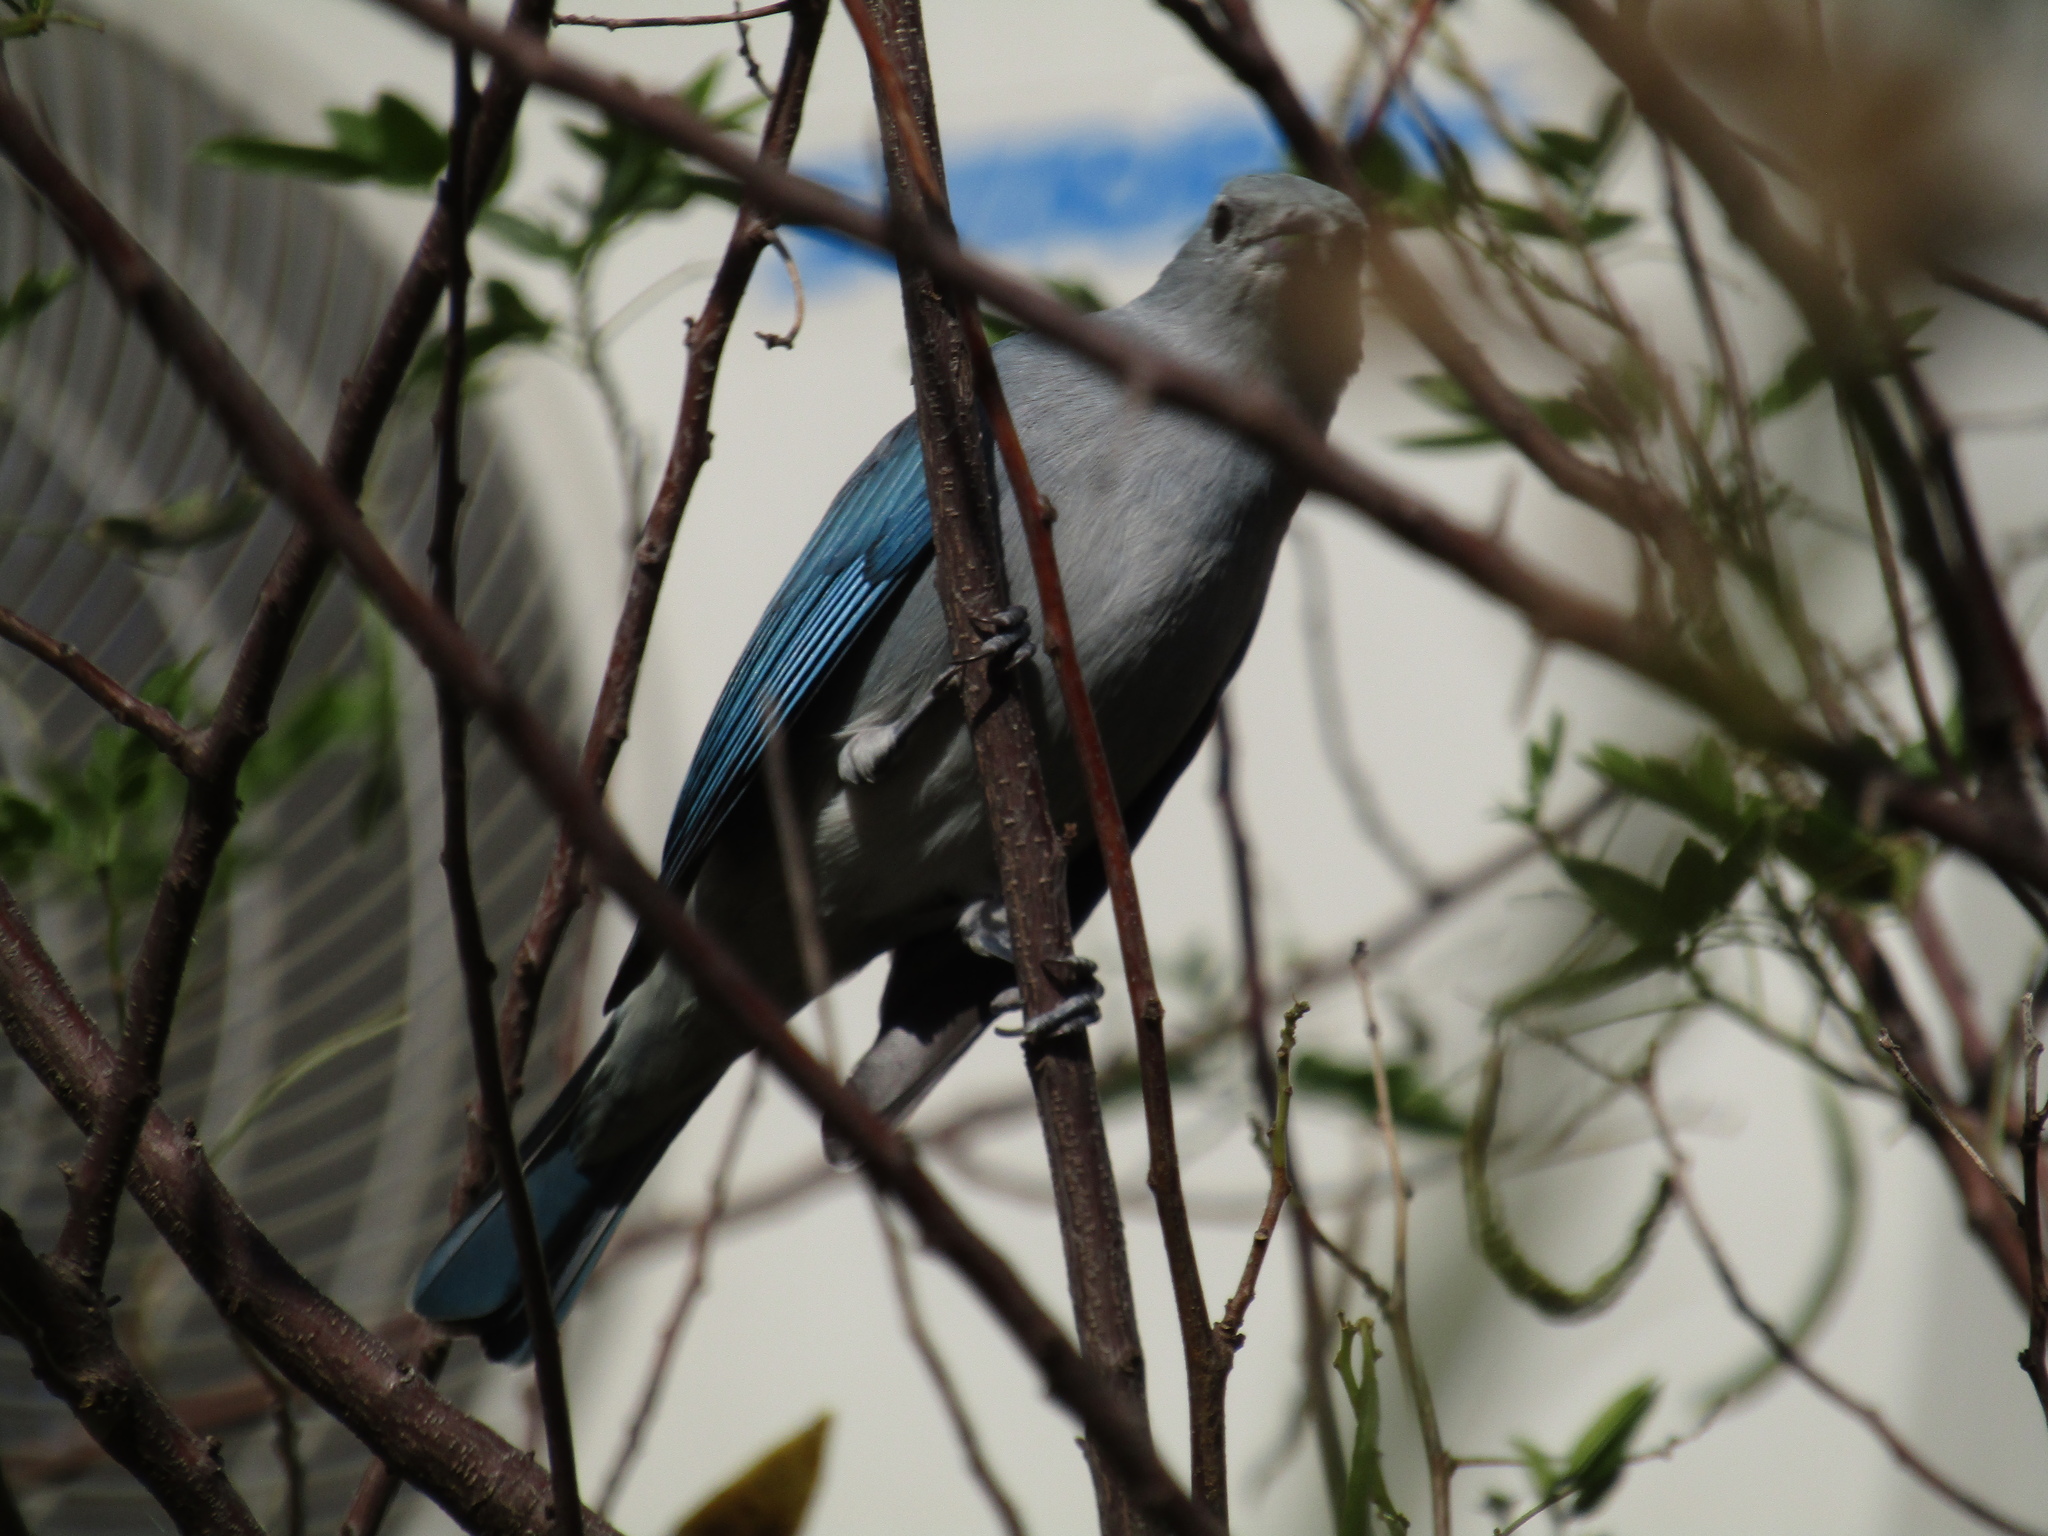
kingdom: Animalia
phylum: Chordata
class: Aves
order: Passeriformes
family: Thraupidae
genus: Thraupis
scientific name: Thraupis sayaca
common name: Sayaca tanager
